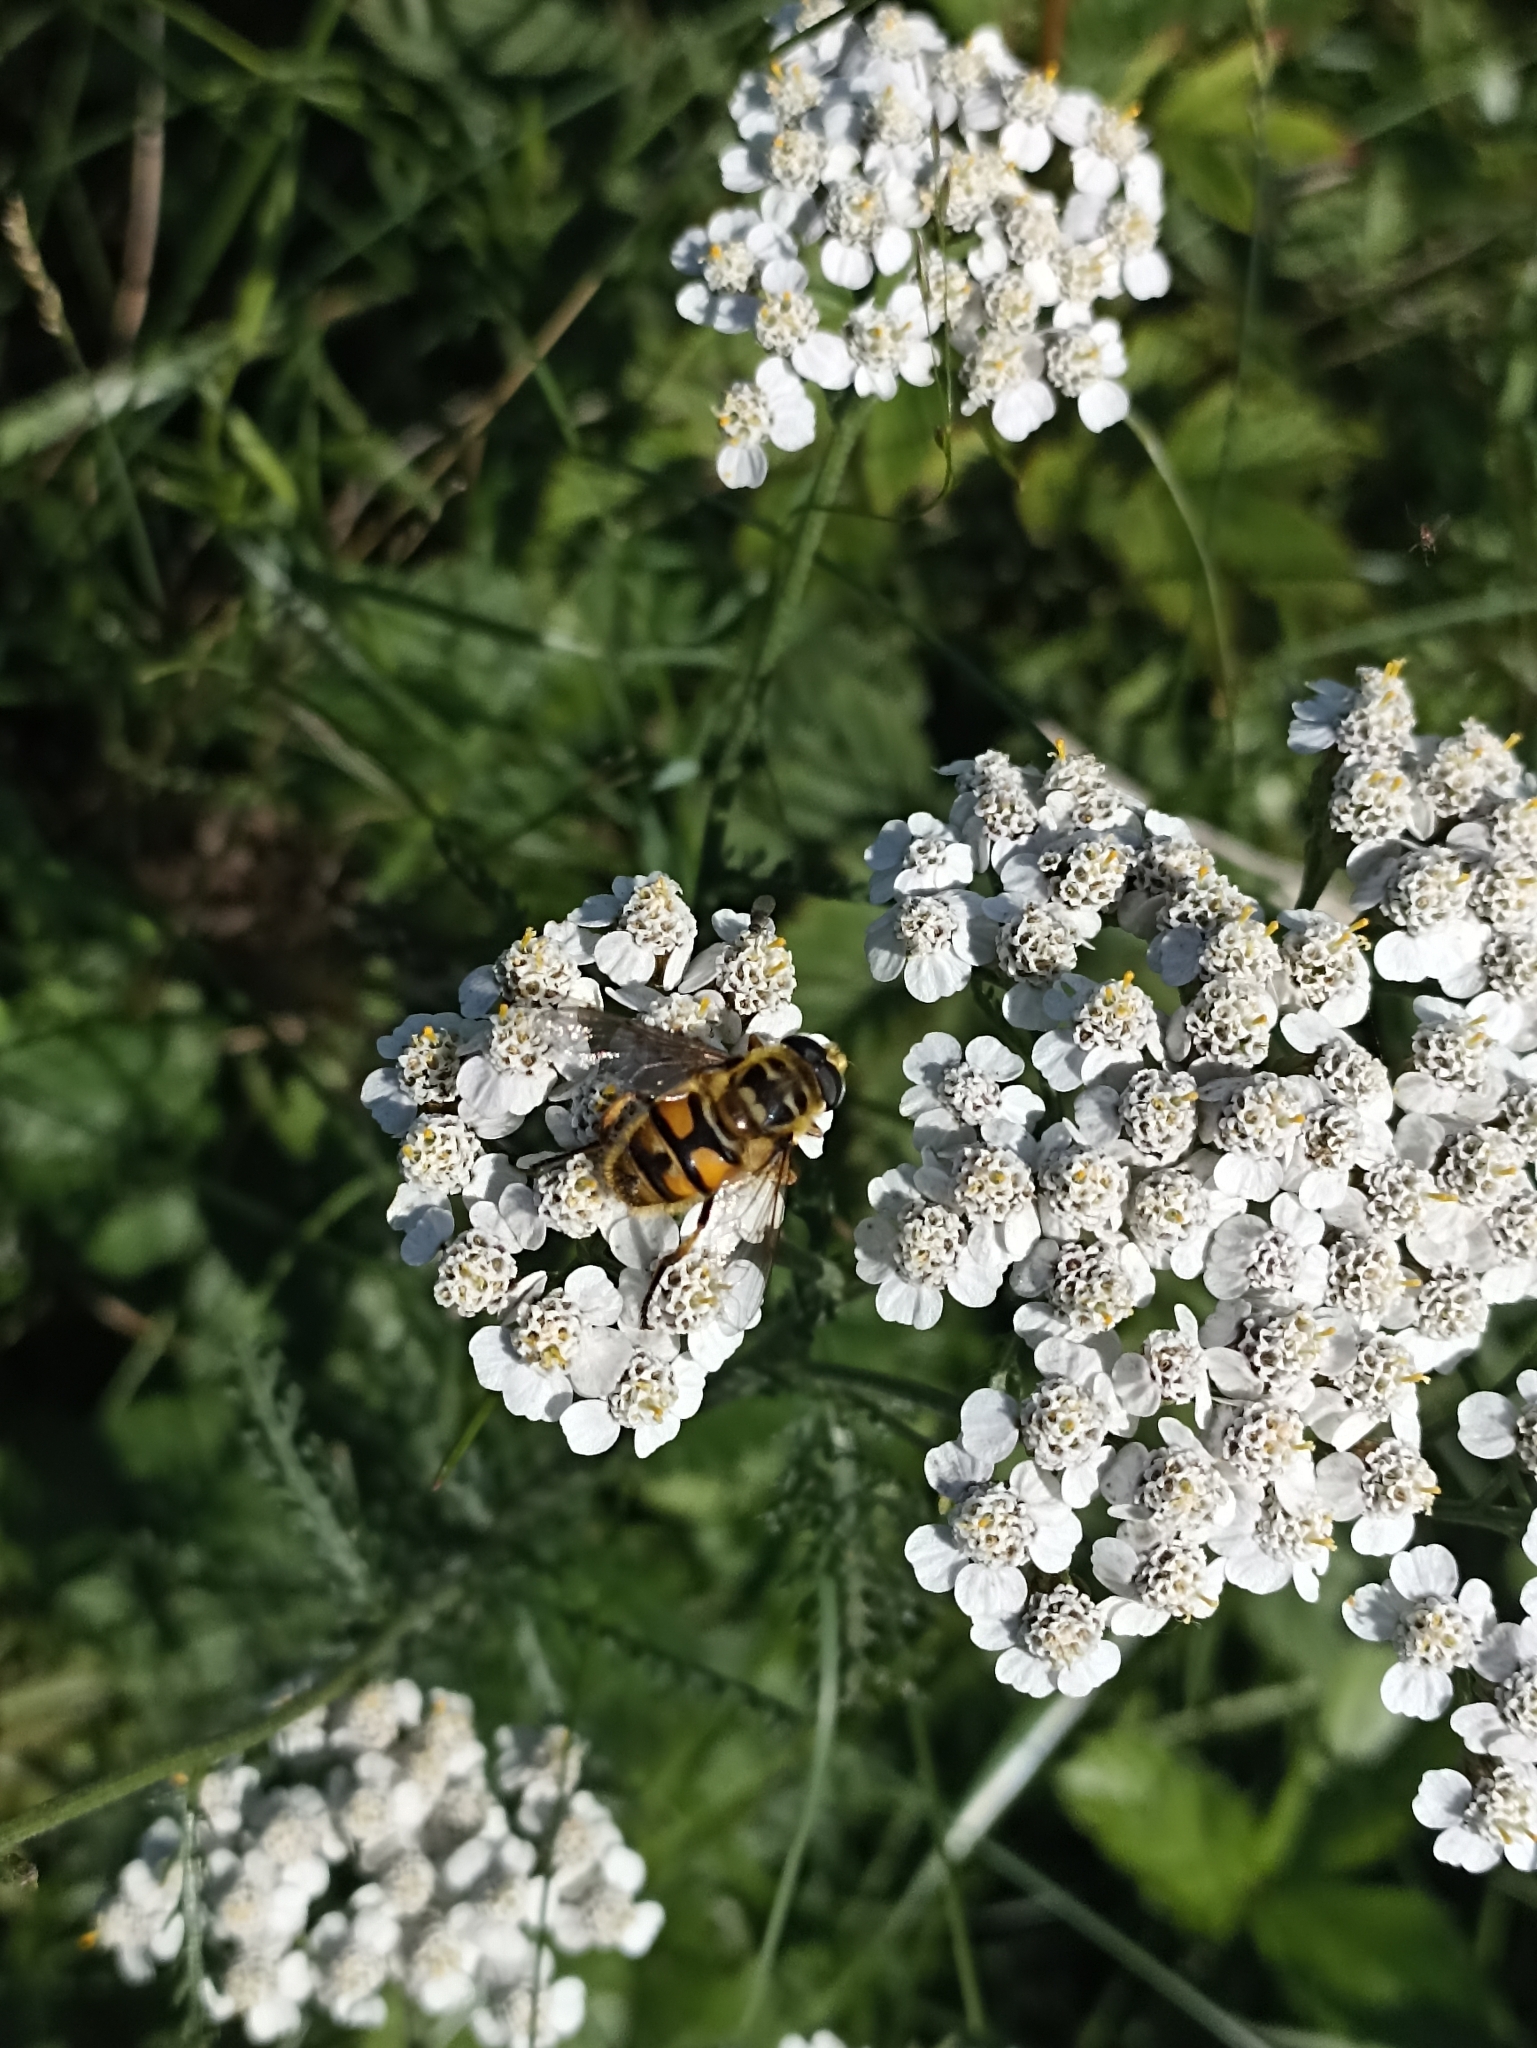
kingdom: Animalia
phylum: Arthropoda
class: Insecta
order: Diptera
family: Syrphidae
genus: Myathropa
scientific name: Myathropa florea
